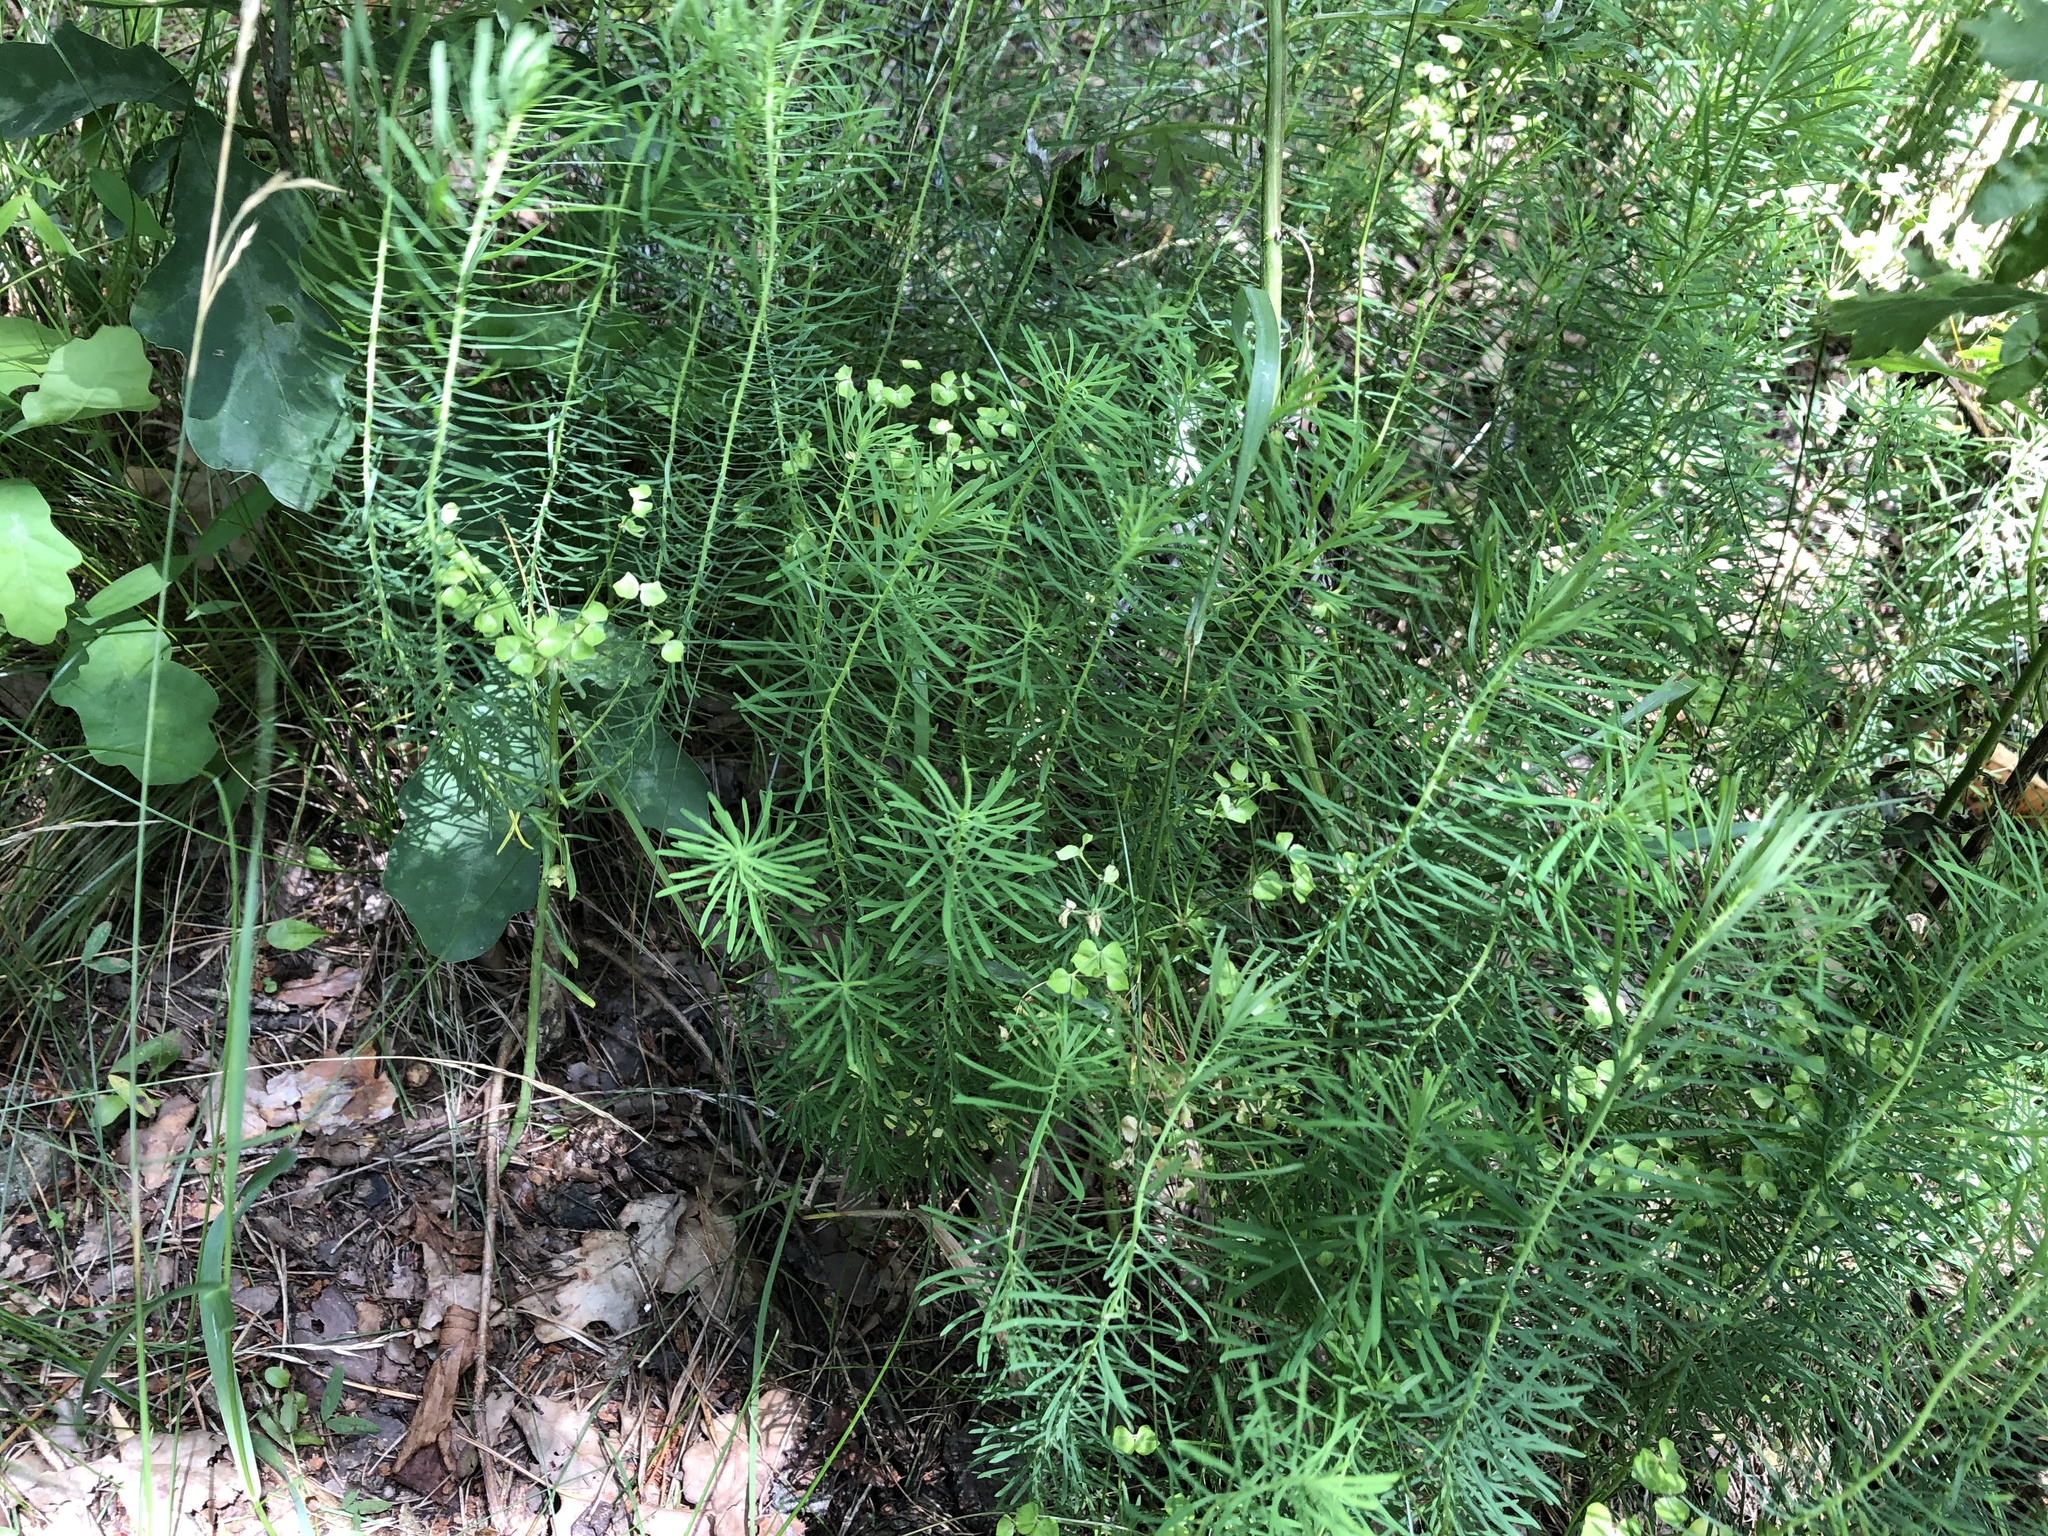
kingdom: Plantae
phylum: Tracheophyta
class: Magnoliopsida
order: Malpighiales
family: Euphorbiaceae
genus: Euphorbia
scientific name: Euphorbia cyparissias
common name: Cypress spurge
